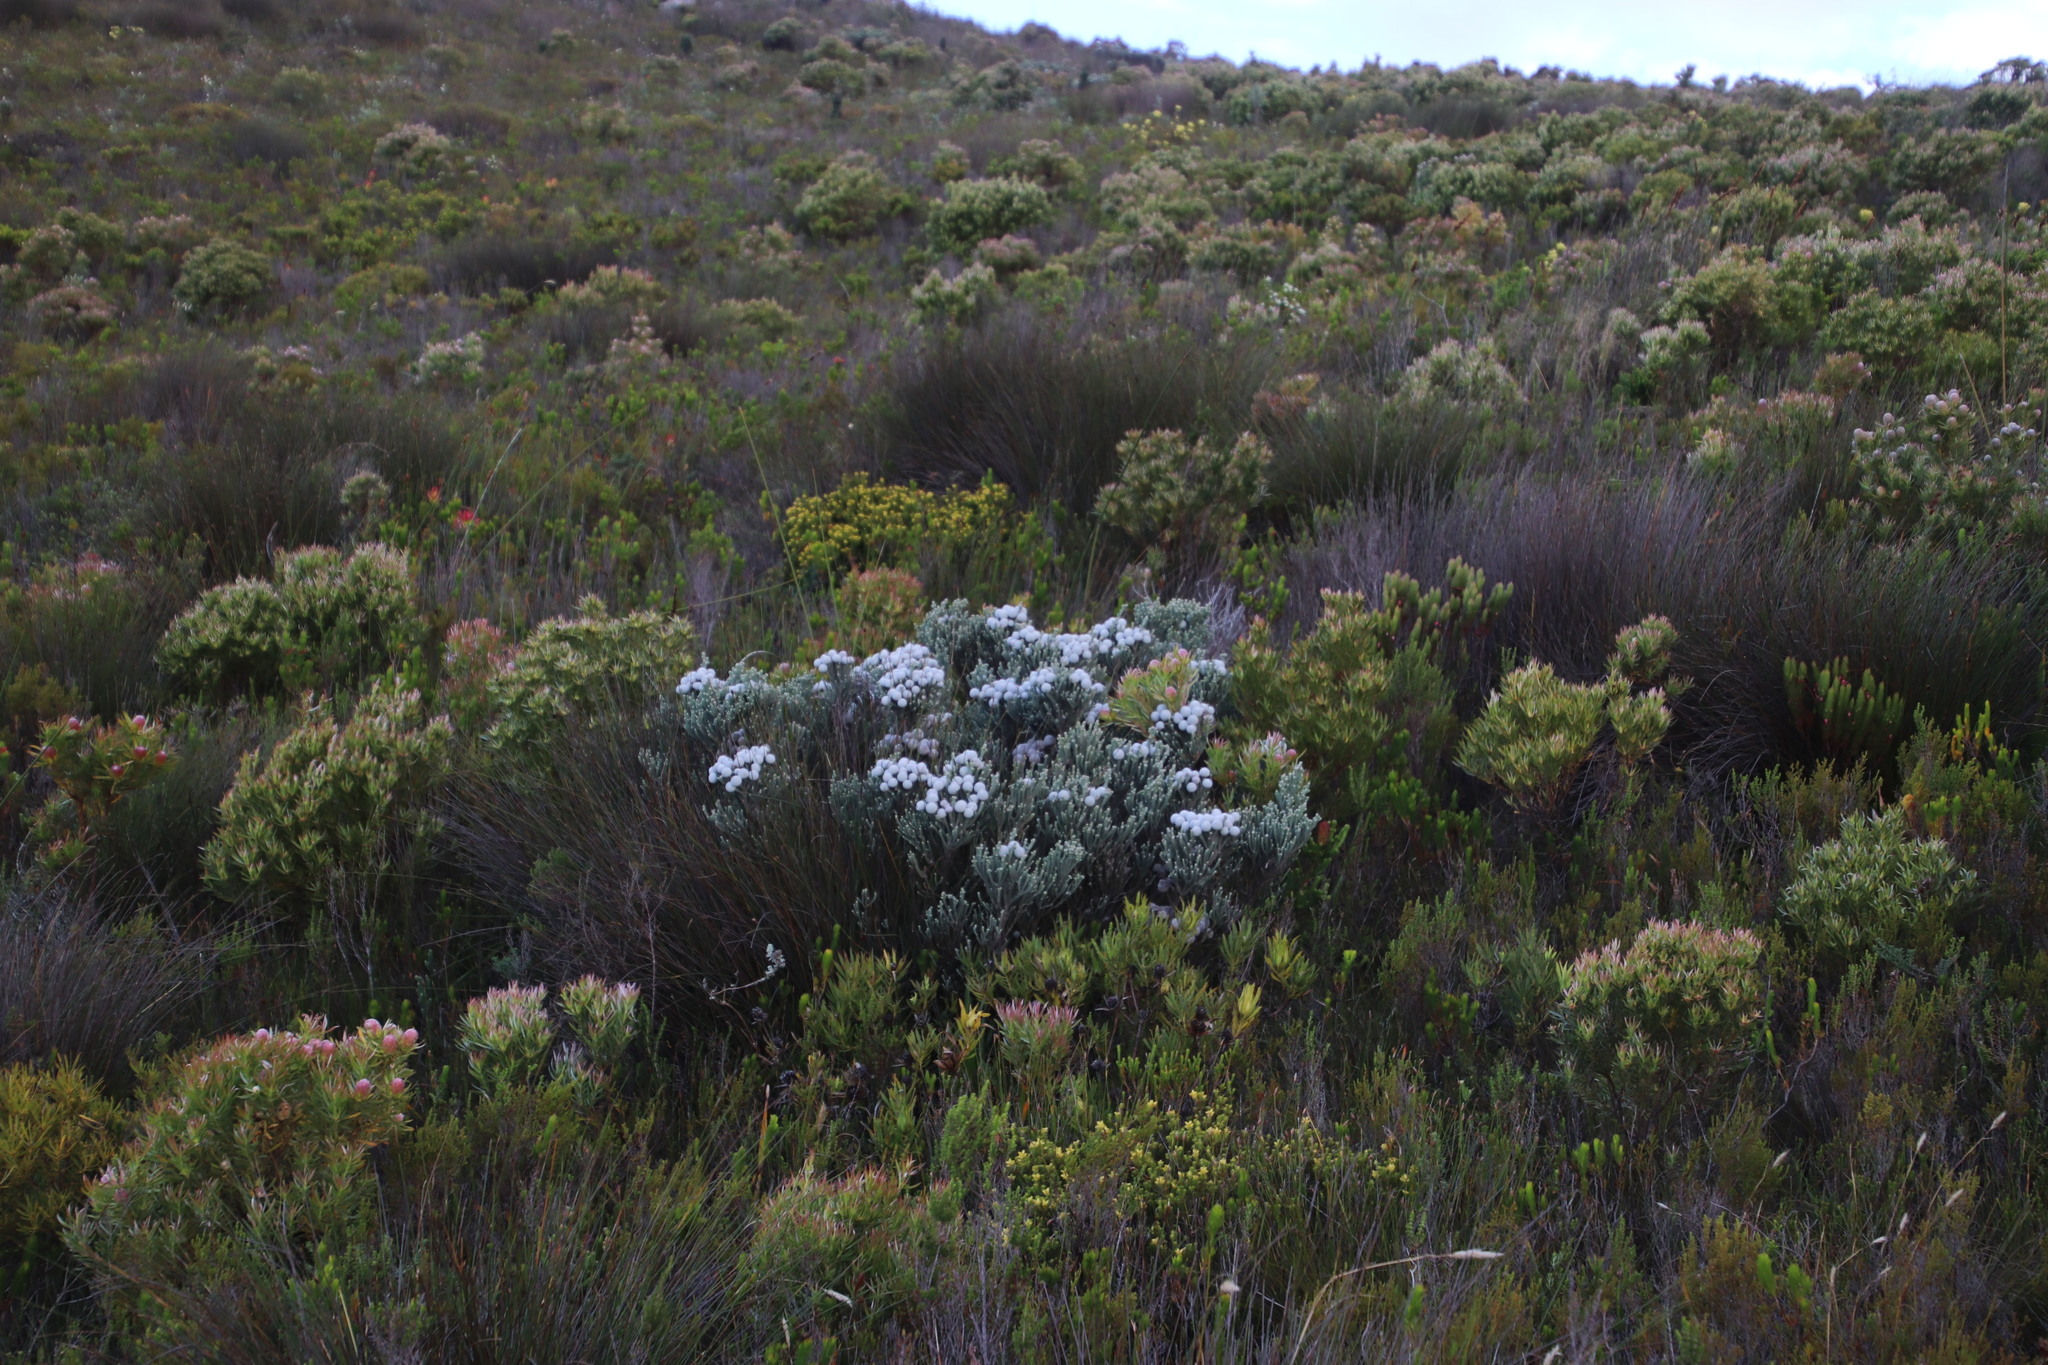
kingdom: Plantae
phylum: Tracheophyta
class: Magnoliopsida
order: Bruniales
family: Bruniaceae
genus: Brunia
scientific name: Brunia laevis
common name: Silver brunia
